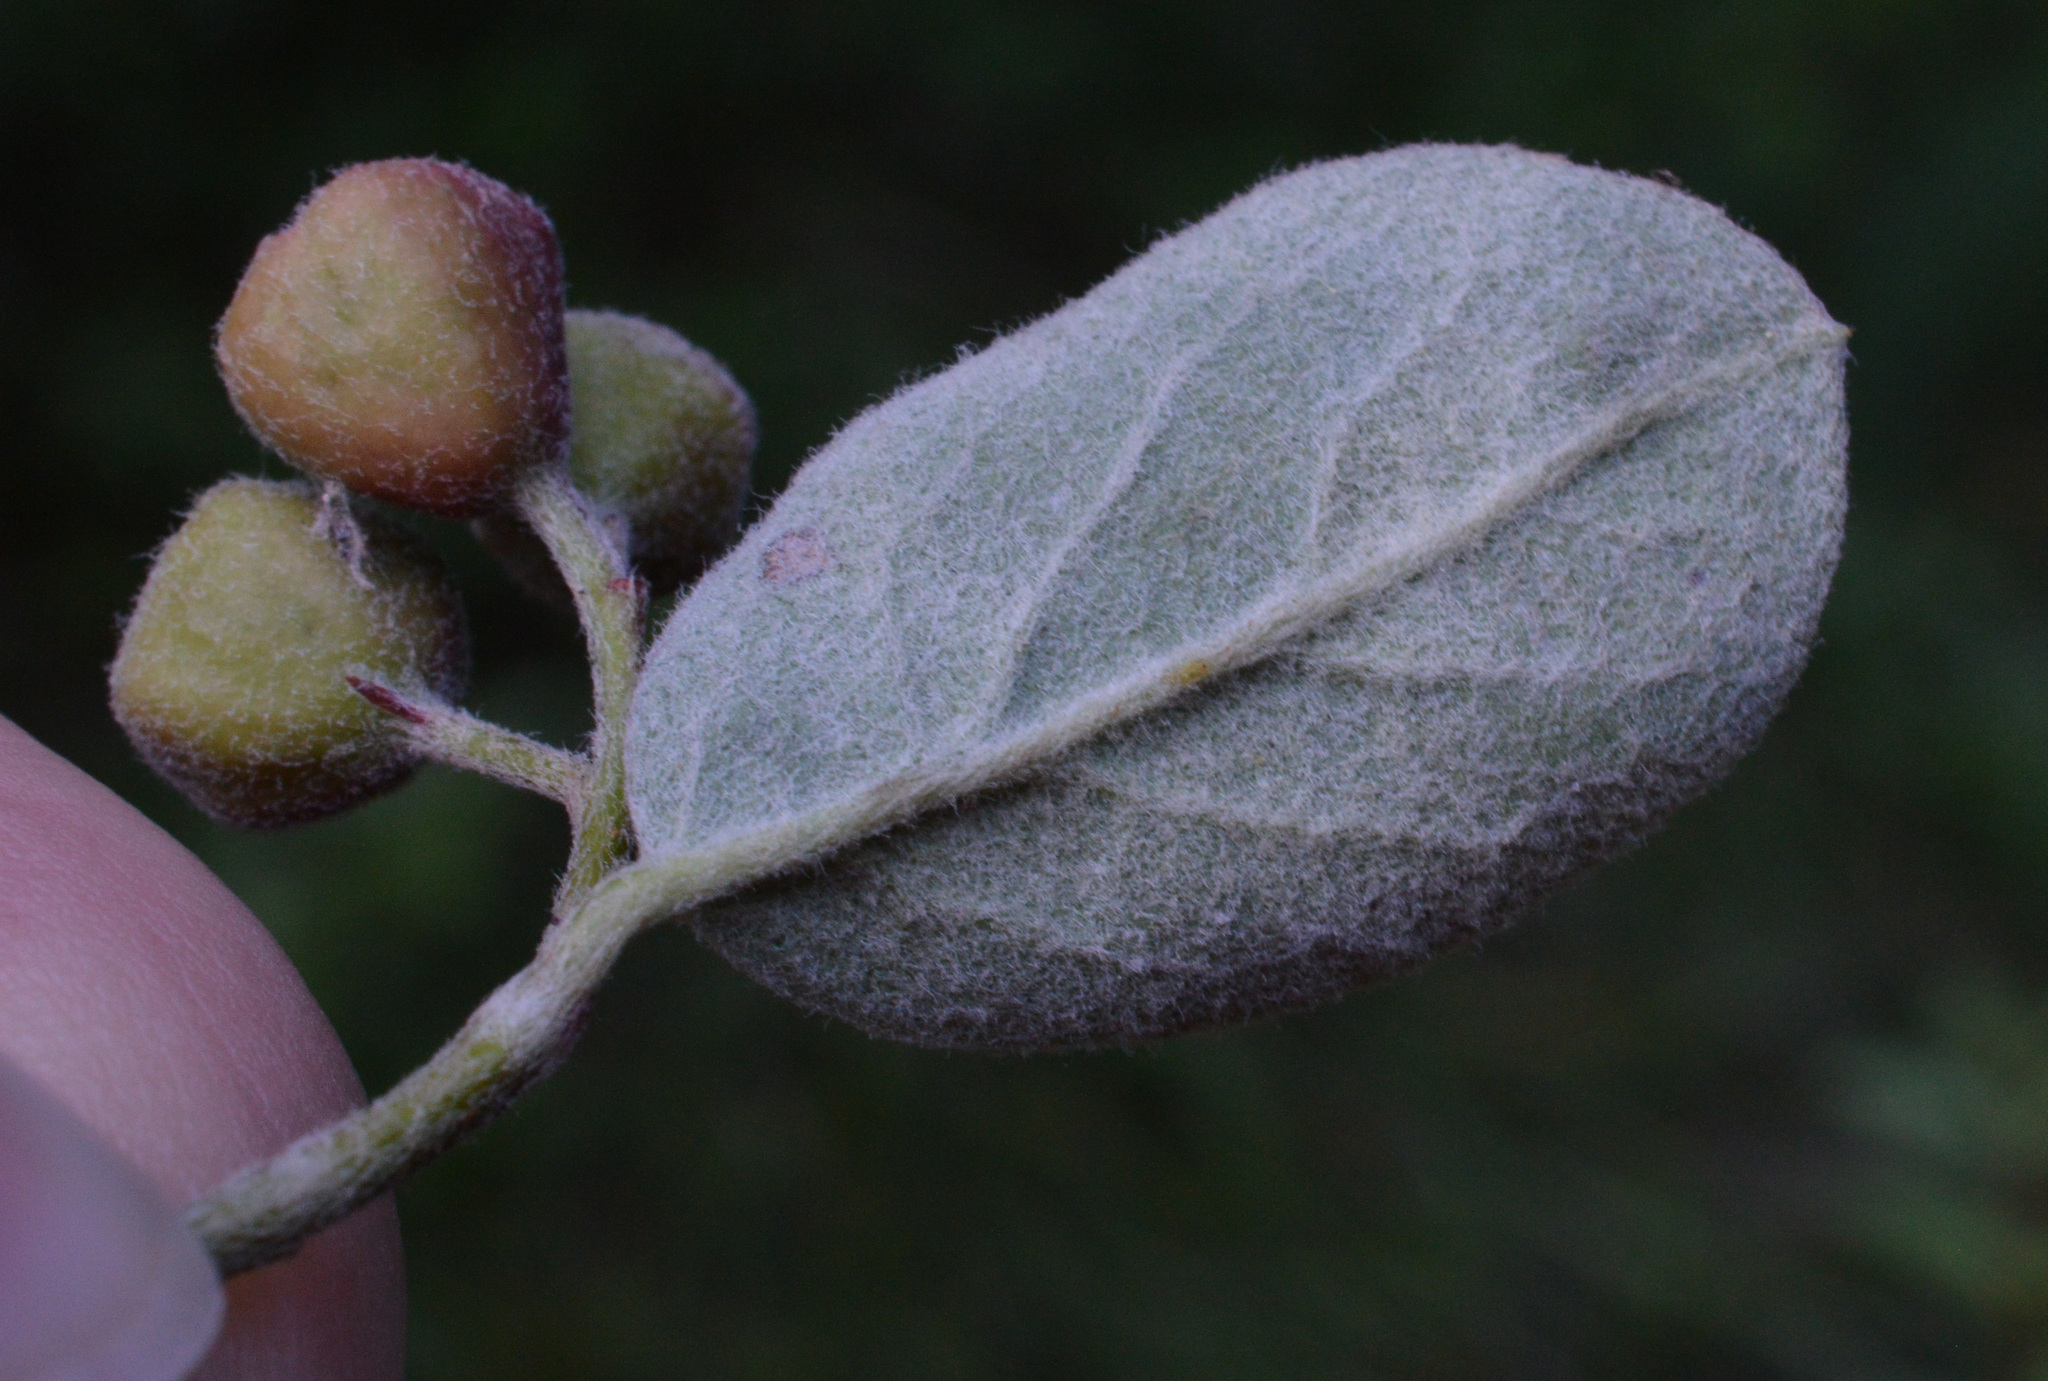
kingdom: Plantae
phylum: Tracheophyta
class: Magnoliopsida
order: Rosales
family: Rosaceae
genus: Cotoneaster
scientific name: Cotoneaster integerrimus
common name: Wild cotoneaster
